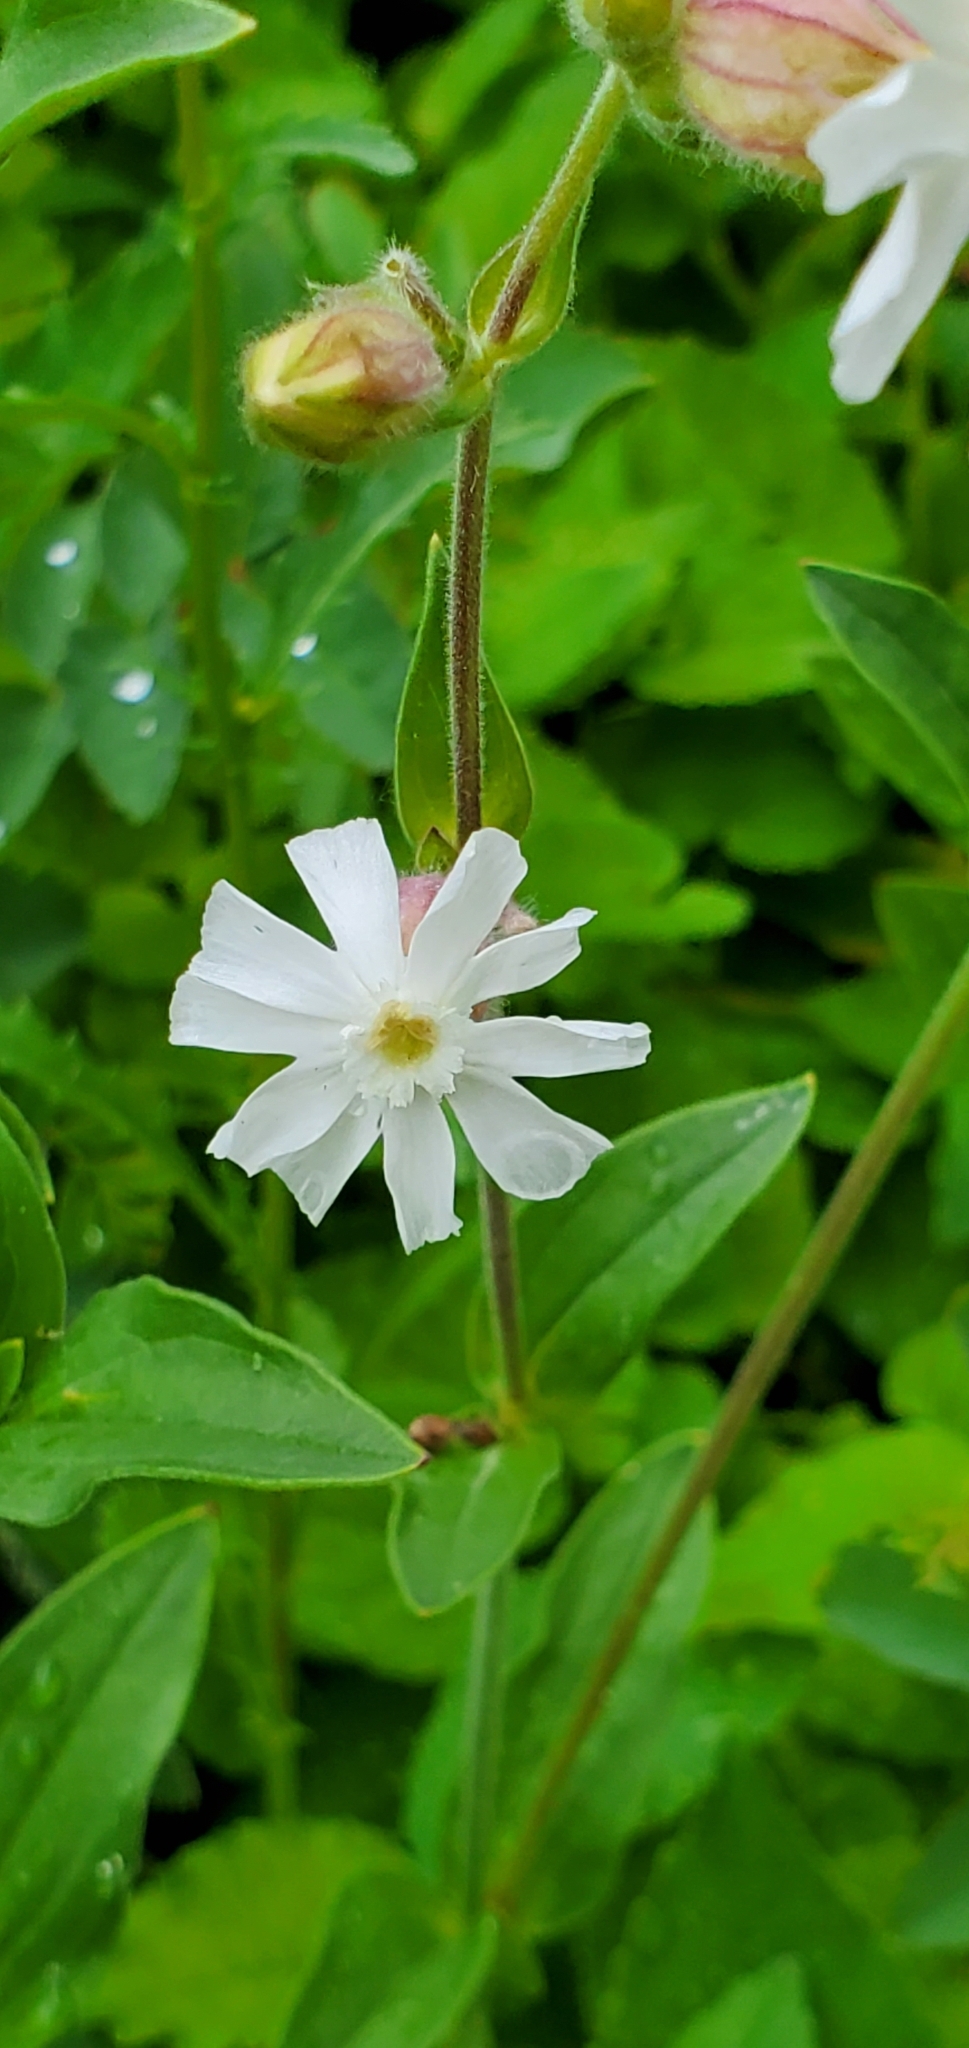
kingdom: Plantae
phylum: Tracheophyta
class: Magnoliopsida
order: Caryophyllales
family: Caryophyllaceae
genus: Silene
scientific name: Silene latifolia
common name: White campion
